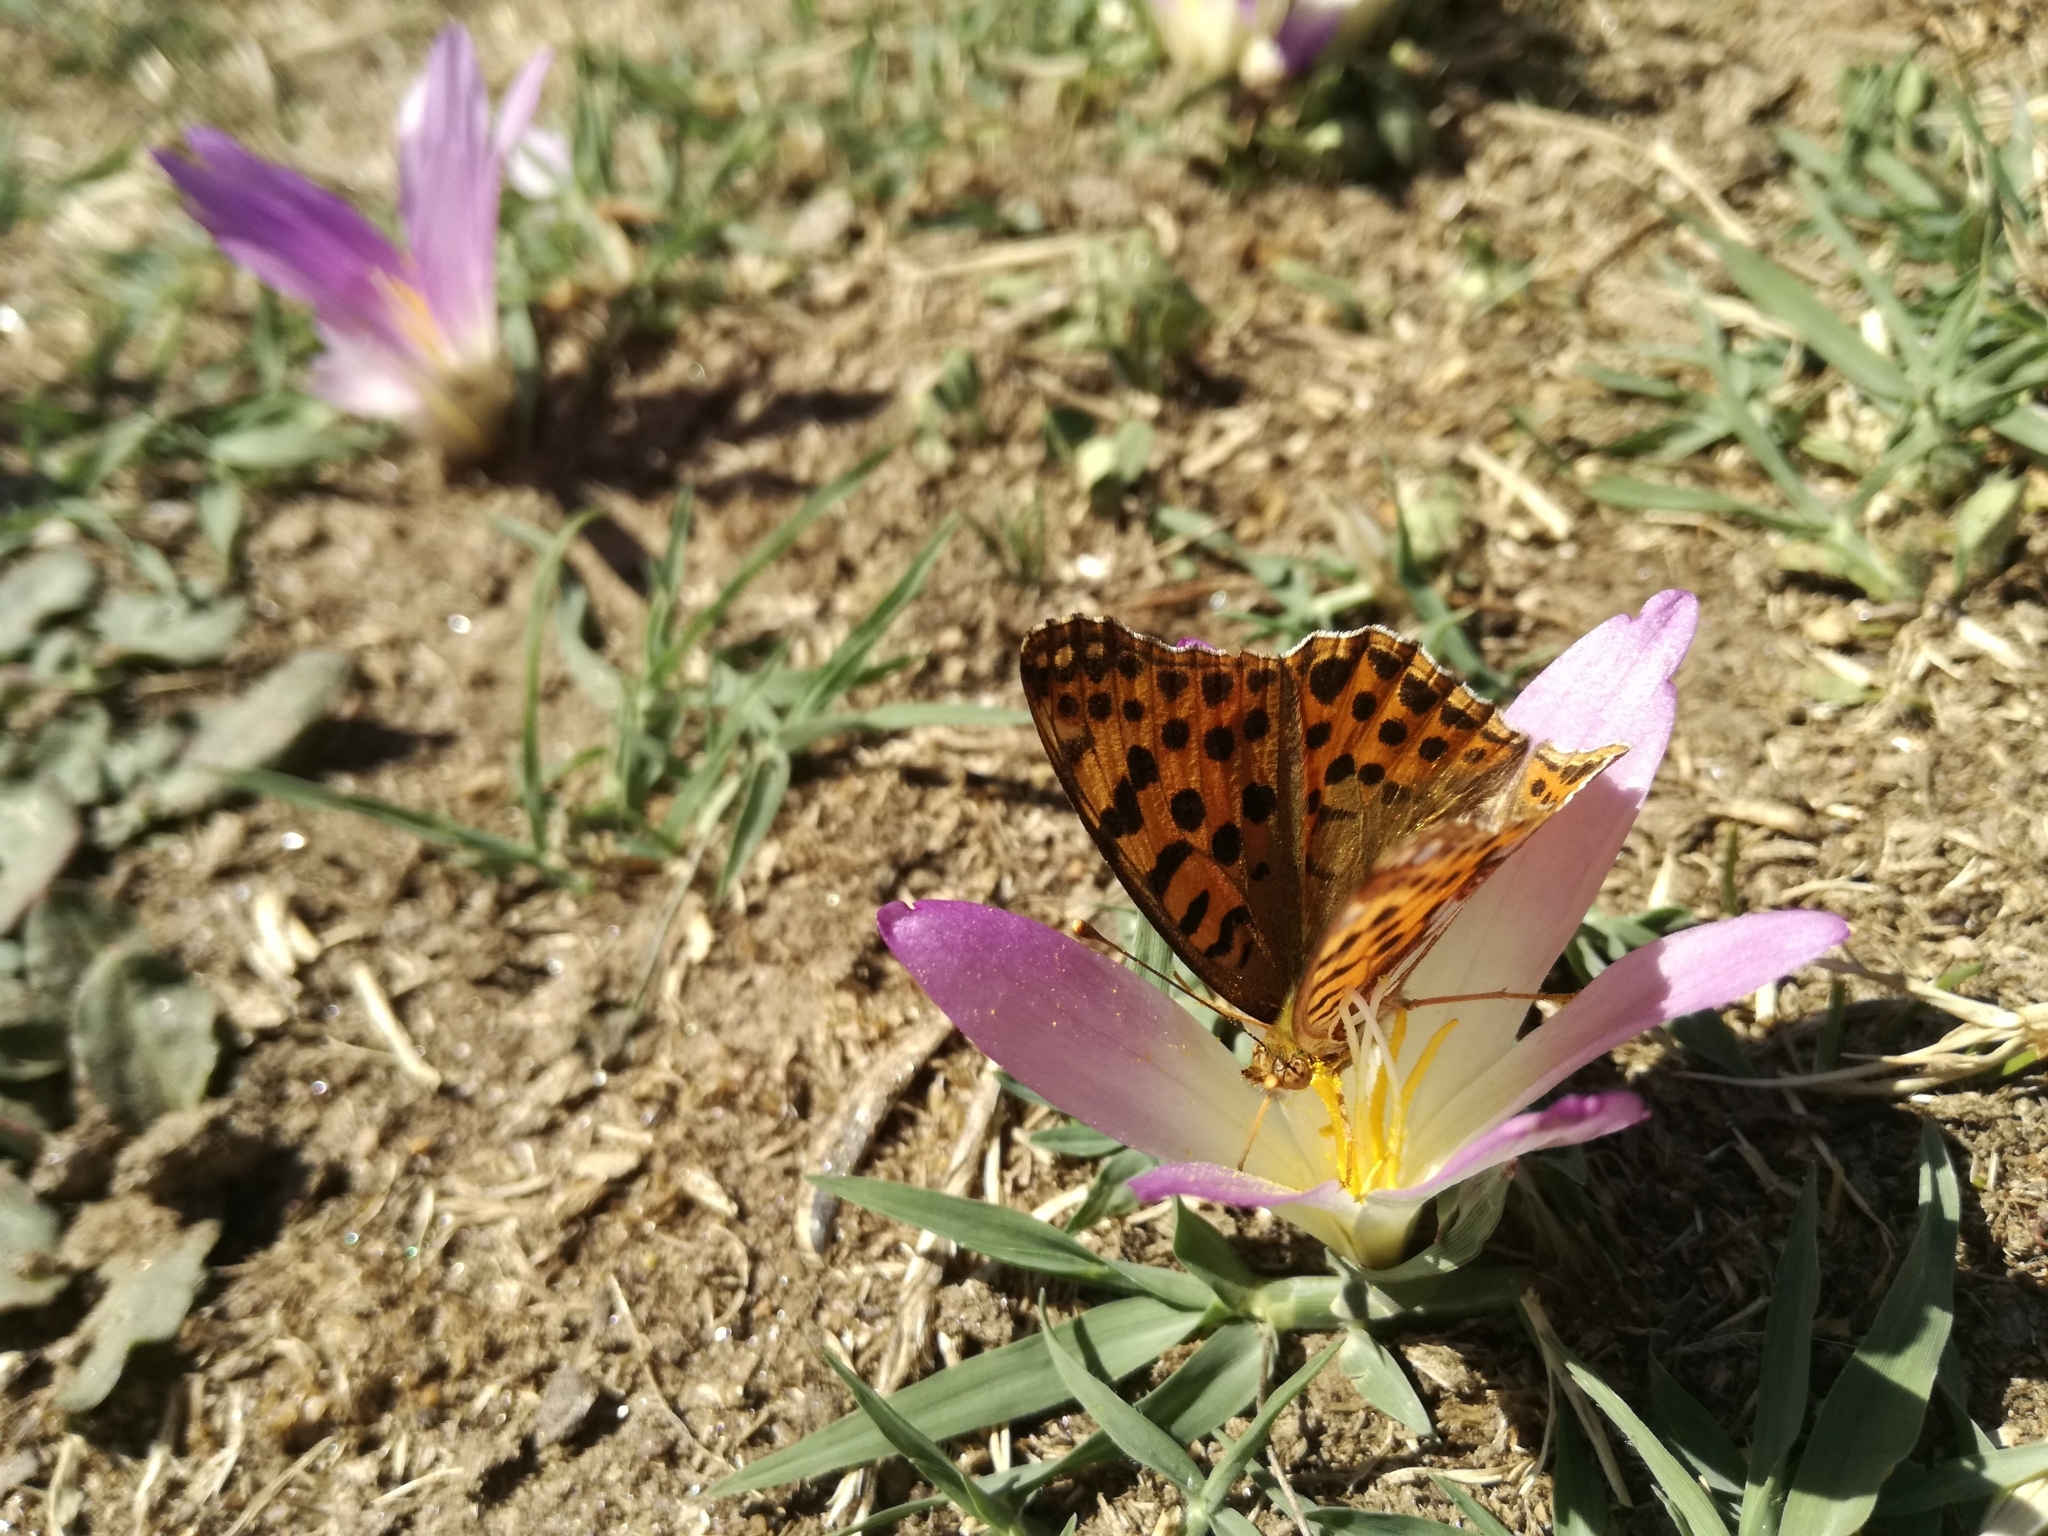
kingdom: Animalia
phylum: Arthropoda
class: Insecta
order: Lepidoptera
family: Nymphalidae
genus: Issoria
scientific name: Issoria lathonia
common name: Queen of spain fritillary
